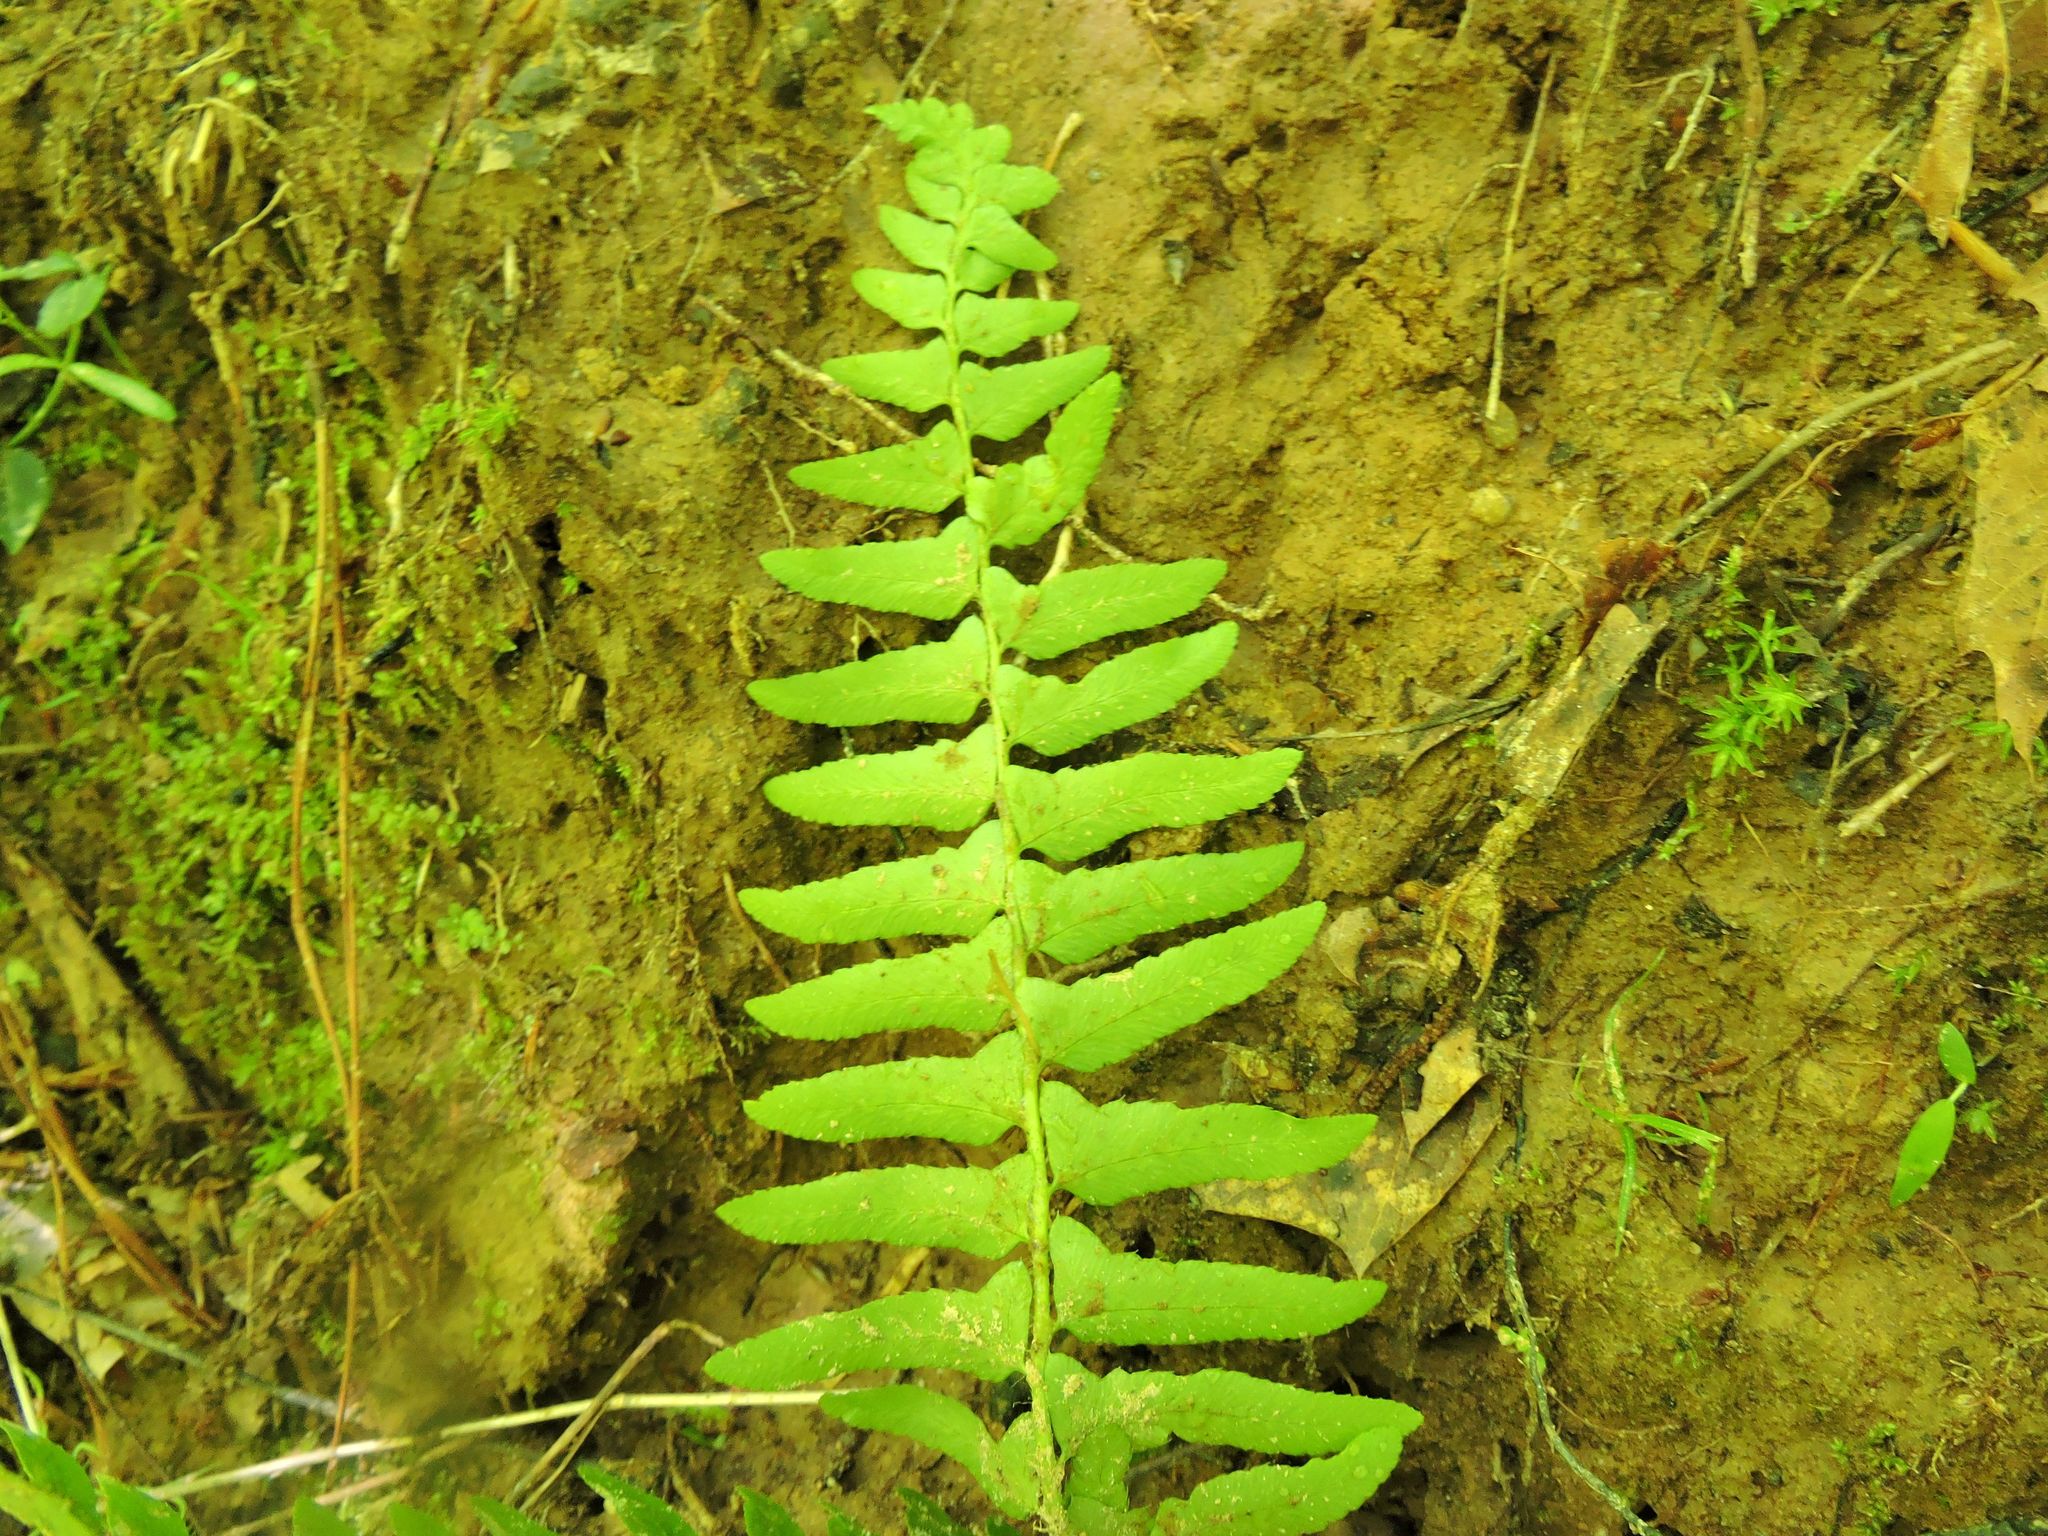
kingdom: Plantae
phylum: Tracheophyta
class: Polypodiopsida
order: Polypodiales
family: Dryopteridaceae
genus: Polystichum
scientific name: Polystichum acrostichoides
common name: Christmas fern
